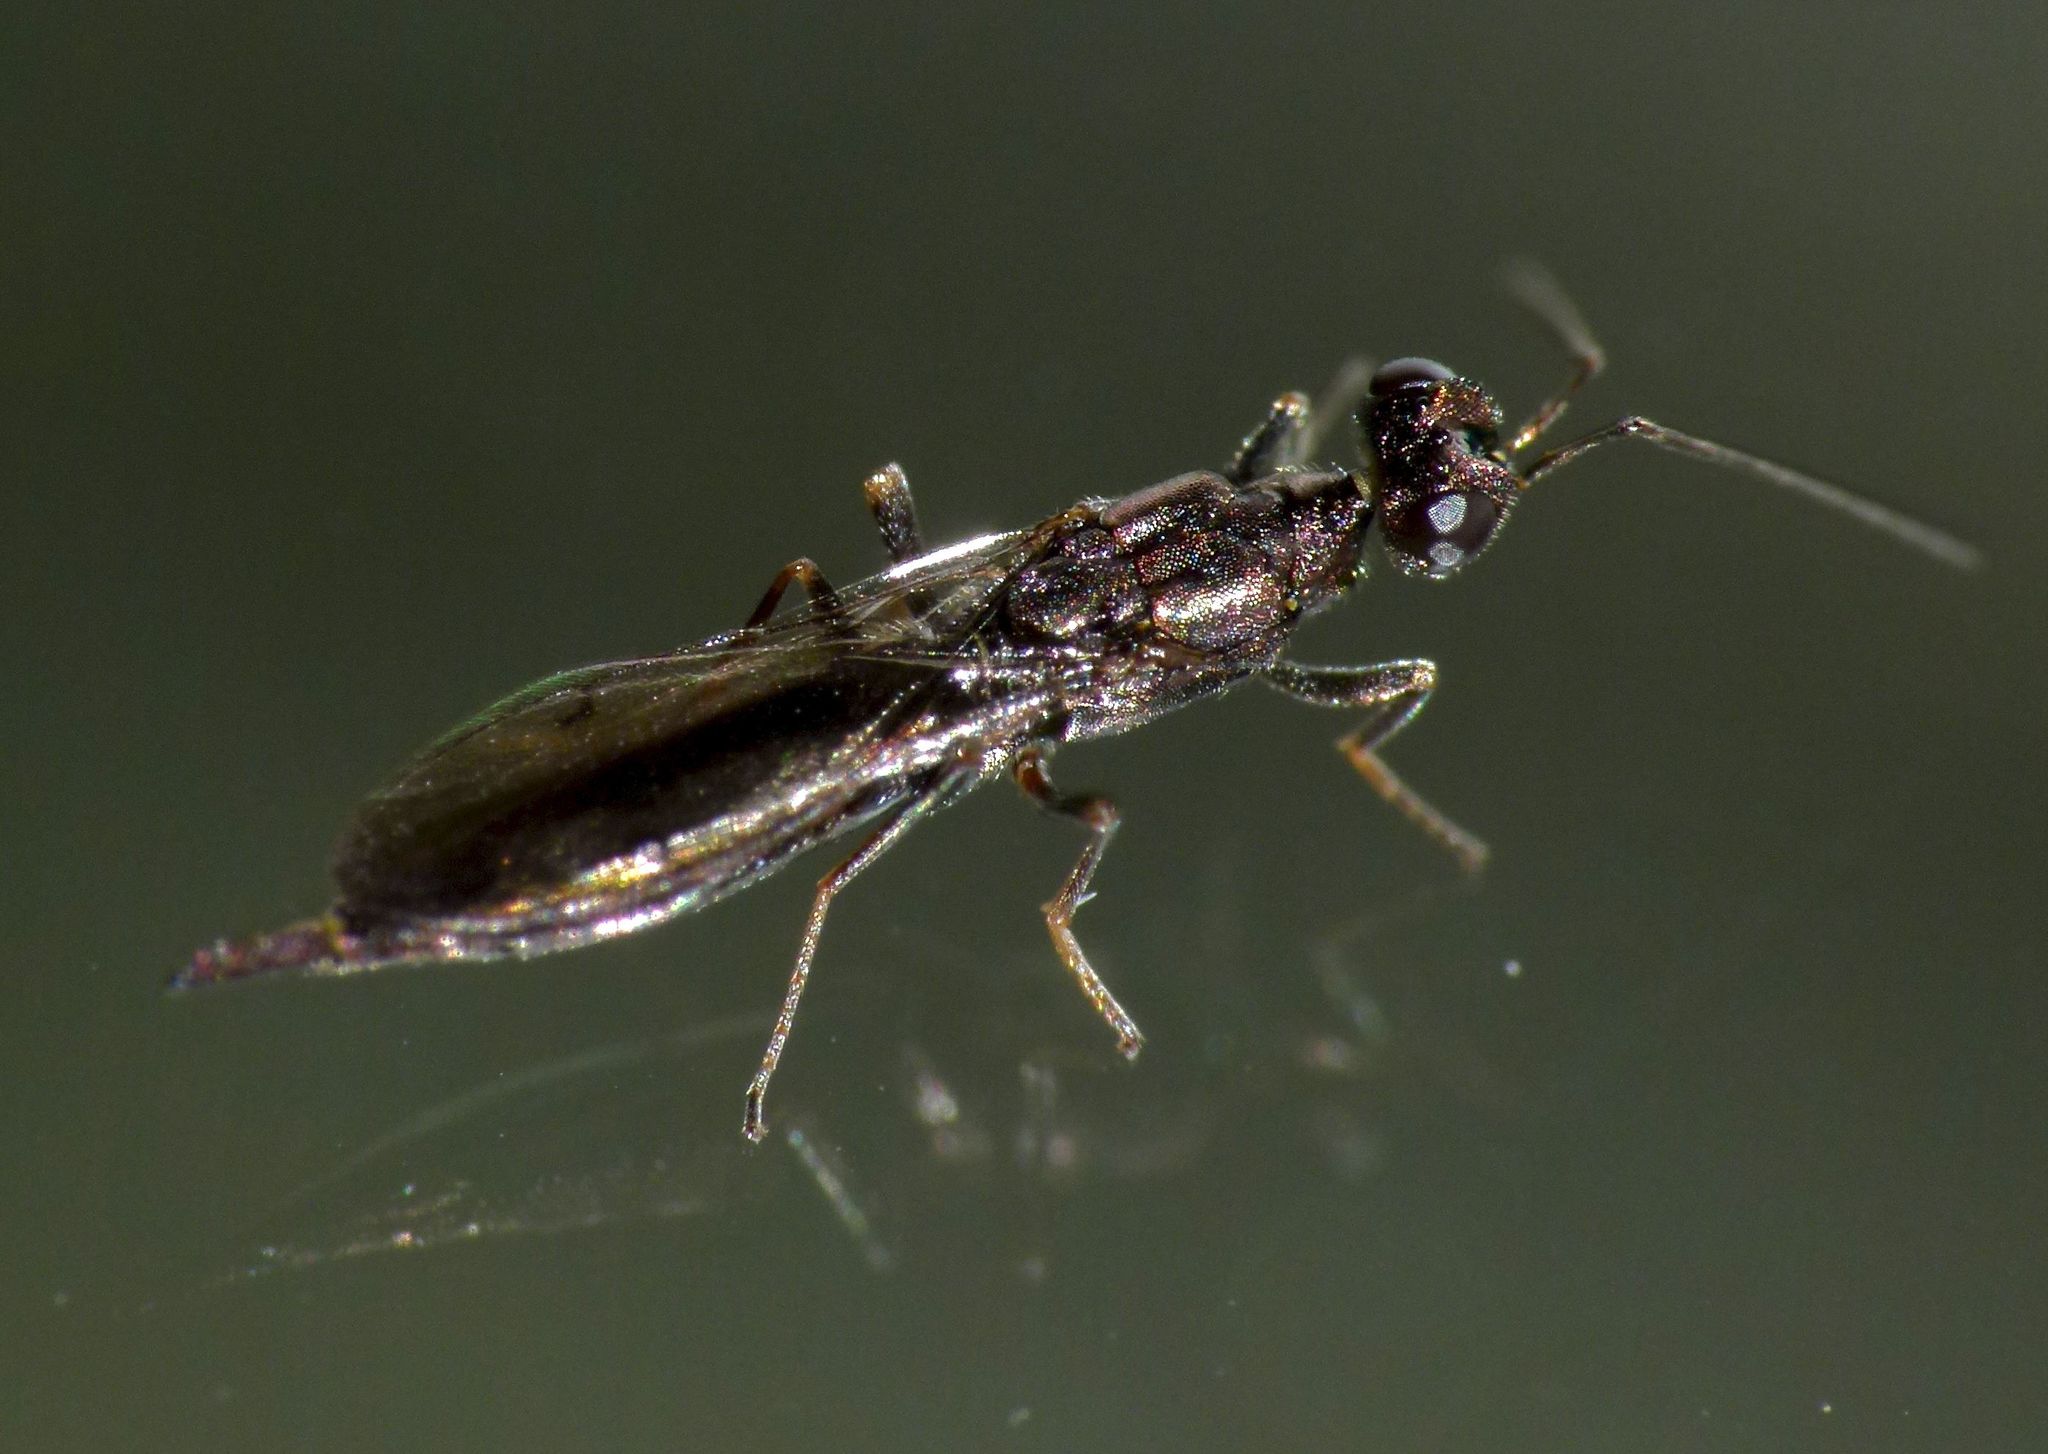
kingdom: Animalia
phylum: Arthropoda
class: Insecta
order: Hymenoptera
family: Eupelmidae
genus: Eusandalum
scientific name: Eusandalum barteli
